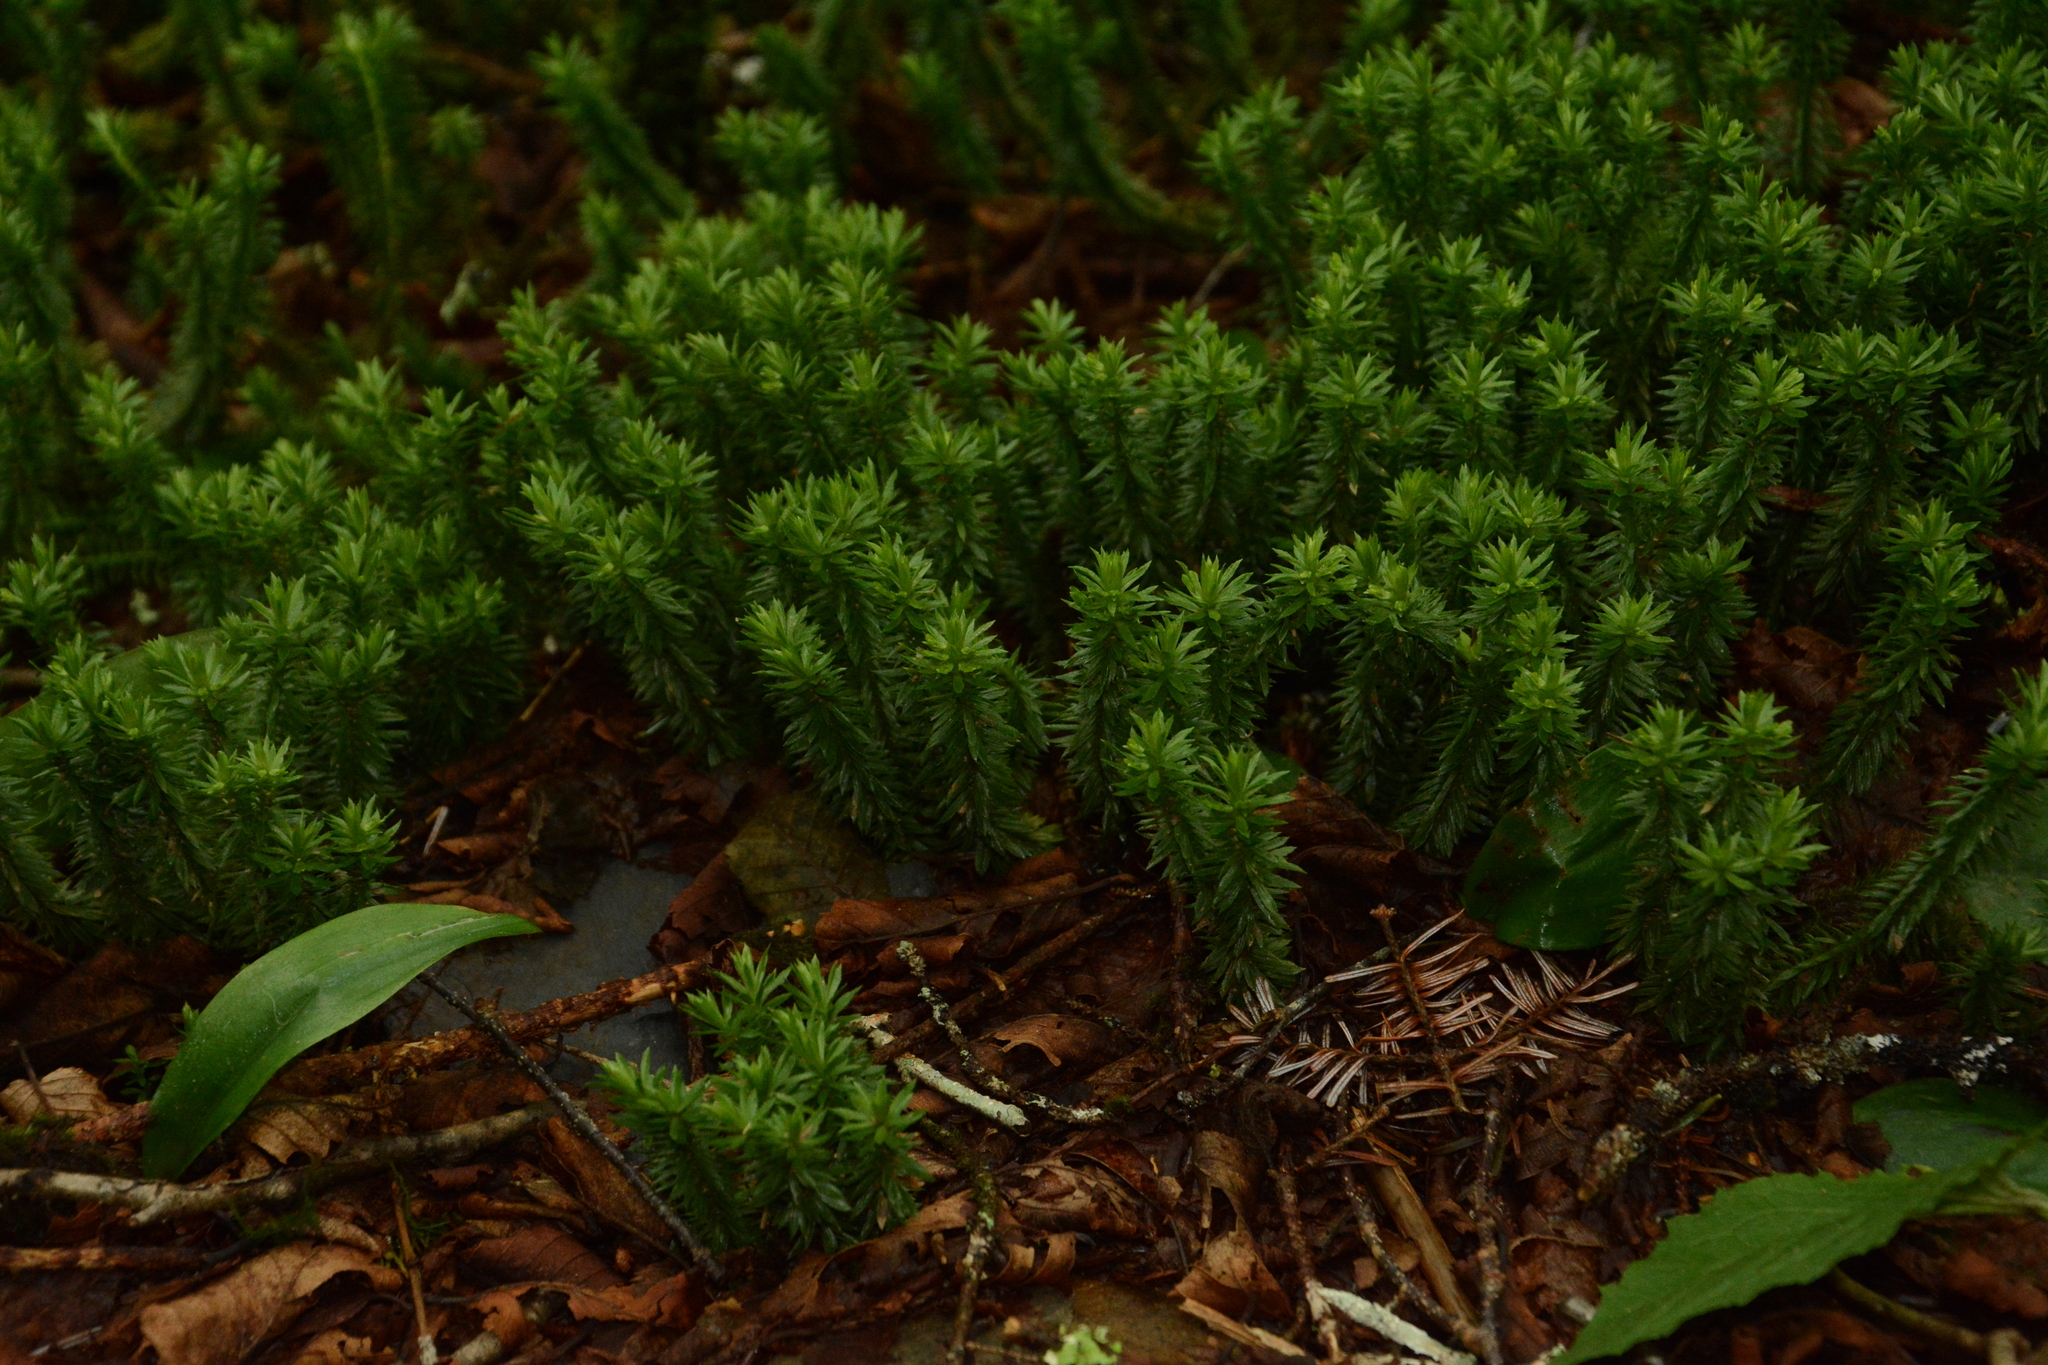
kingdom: Plantae
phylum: Tracheophyta
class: Lycopodiopsida
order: Lycopodiales
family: Lycopodiaceae
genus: Huperzia
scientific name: Huperzia lucidula
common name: Shining clubmoss
